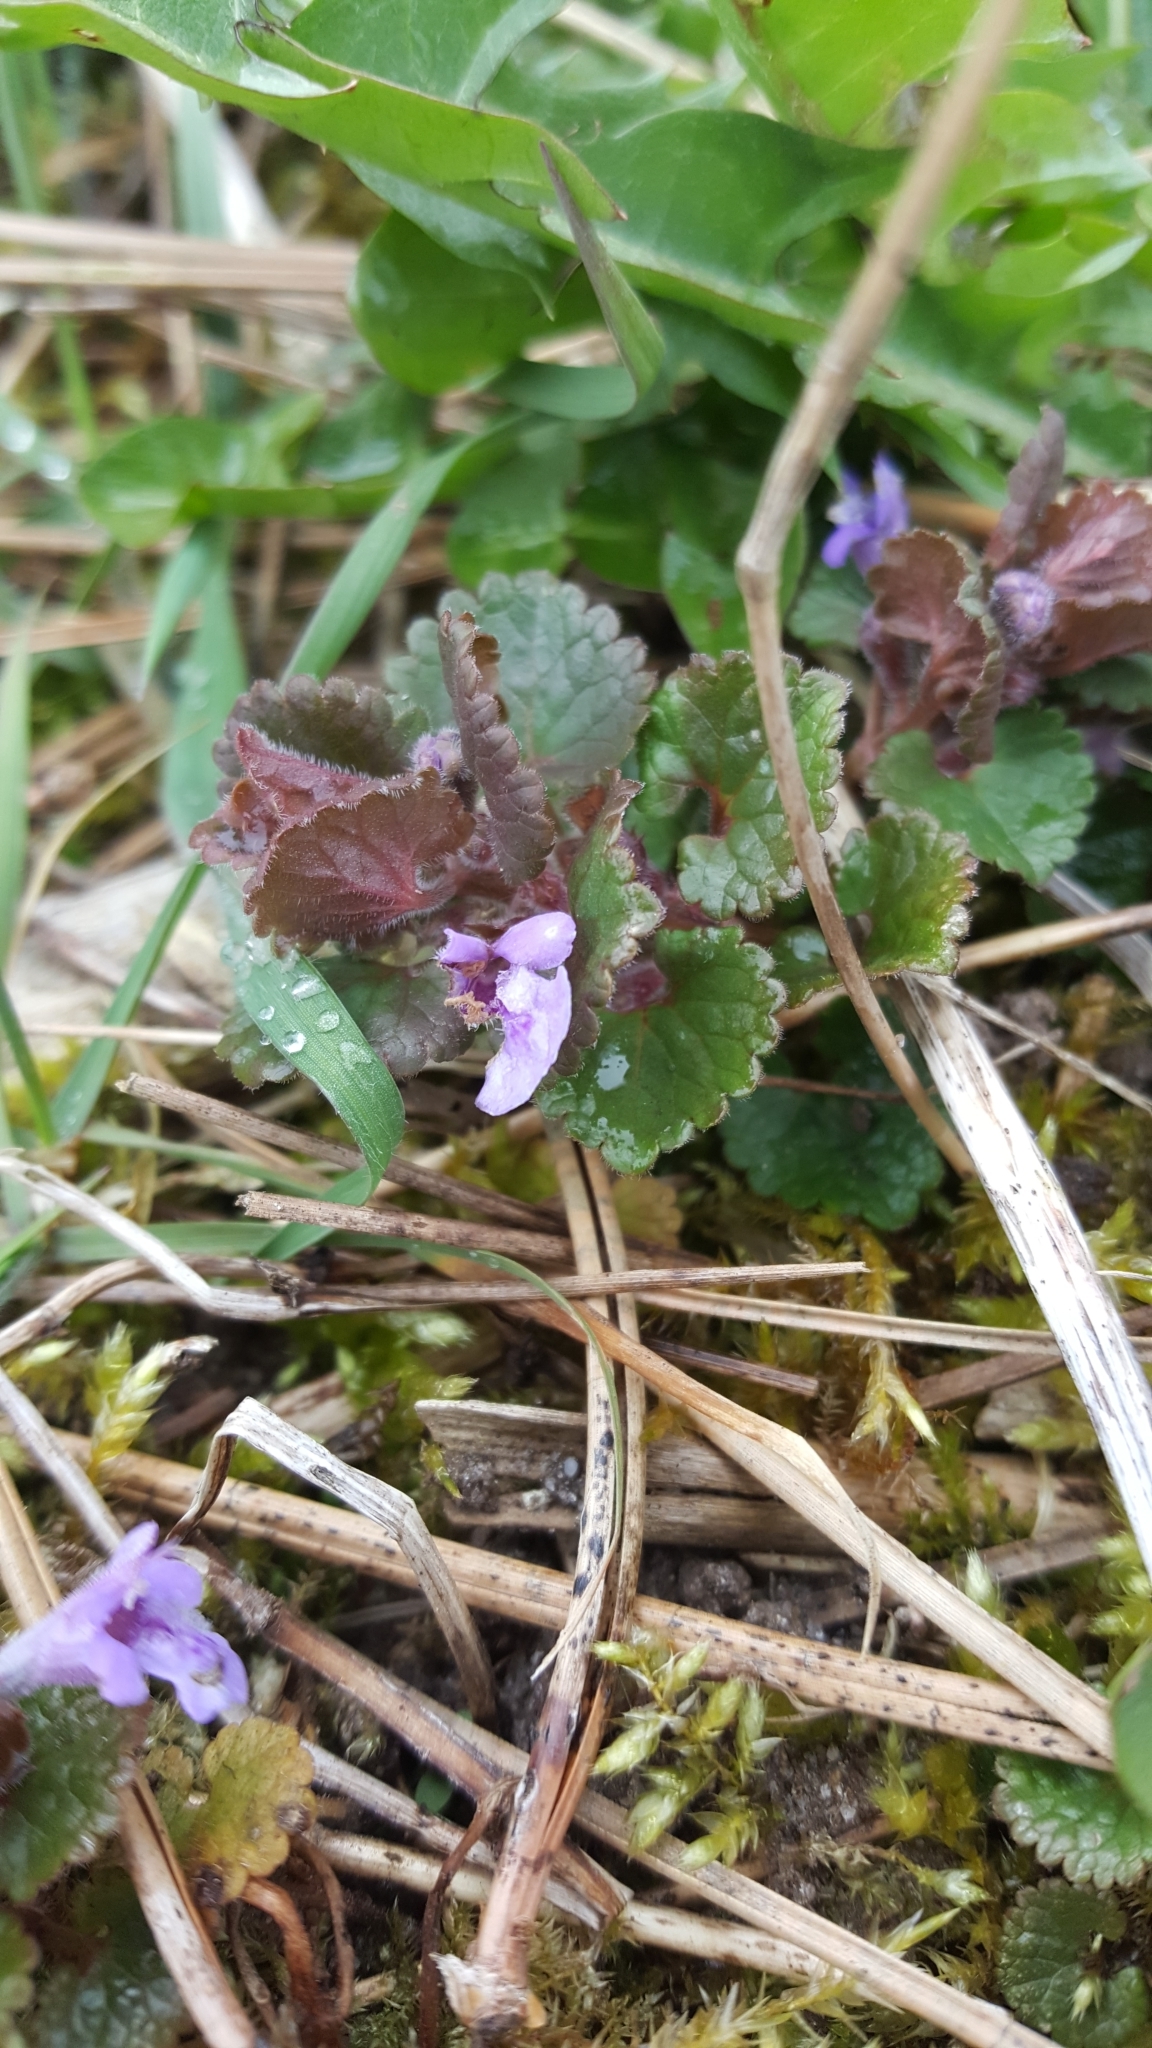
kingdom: Plantae
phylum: Tracheophyta
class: Magnoliopsida
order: Lamiales
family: Lamiaceae
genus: Glechoma
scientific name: Glechoma hederacea
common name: Ground ivy
